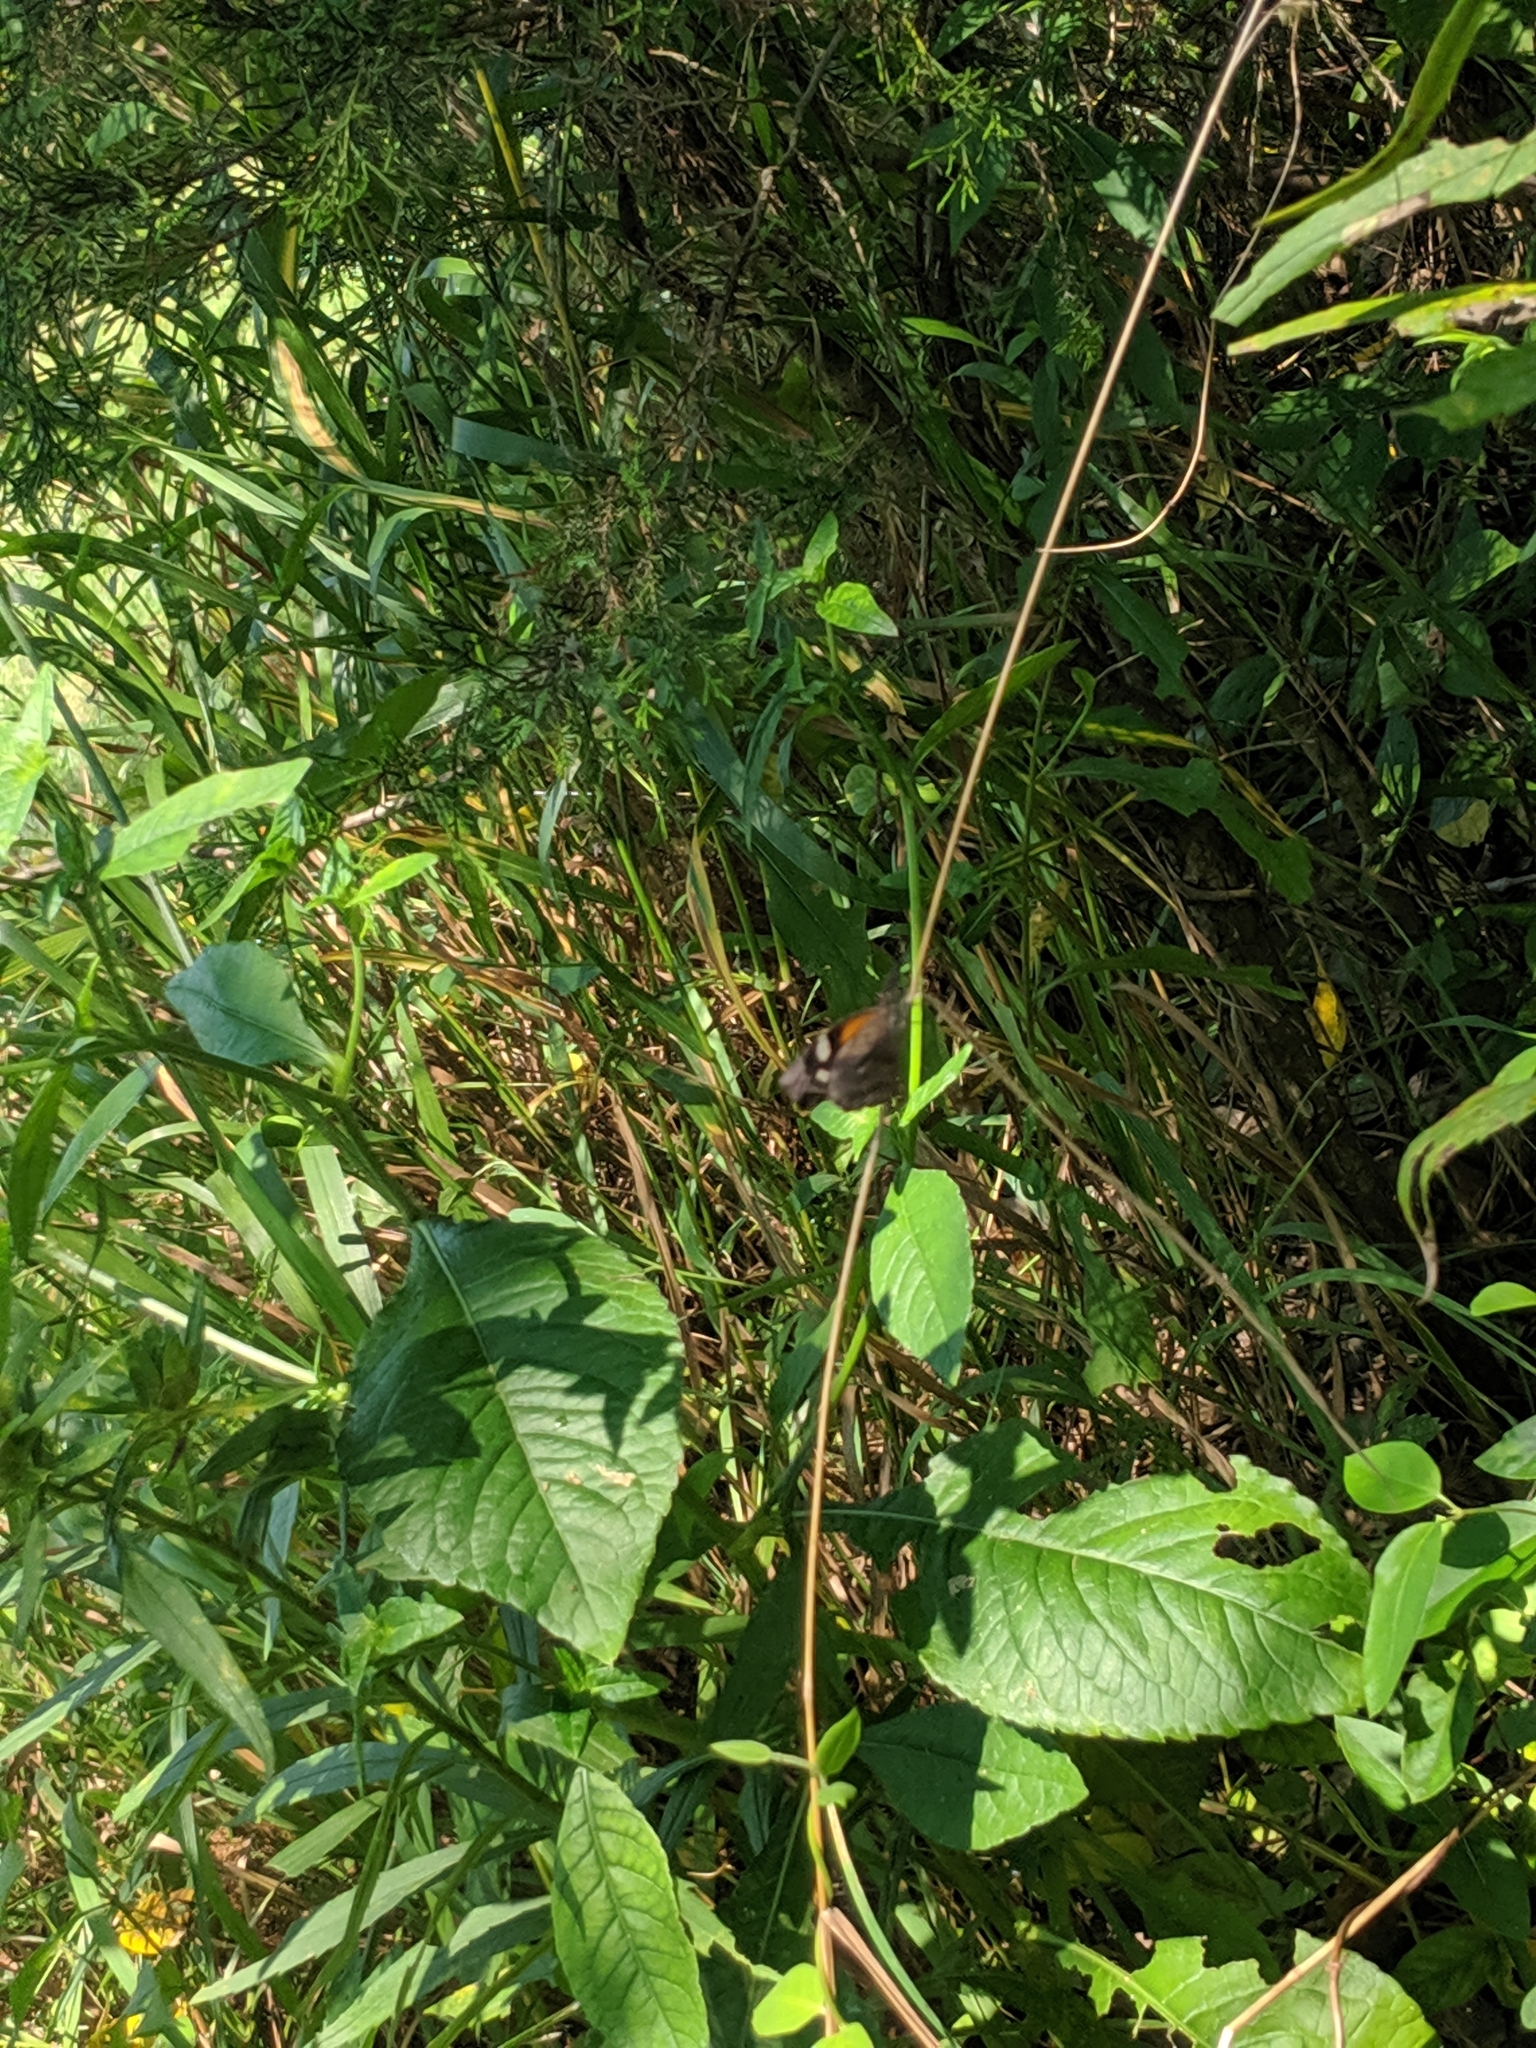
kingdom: Animalia
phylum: Arthropoda
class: Insecta
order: Lepidoptera
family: Nymphalidae
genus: Libytheana
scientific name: Libytheana carinenta
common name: American snout
